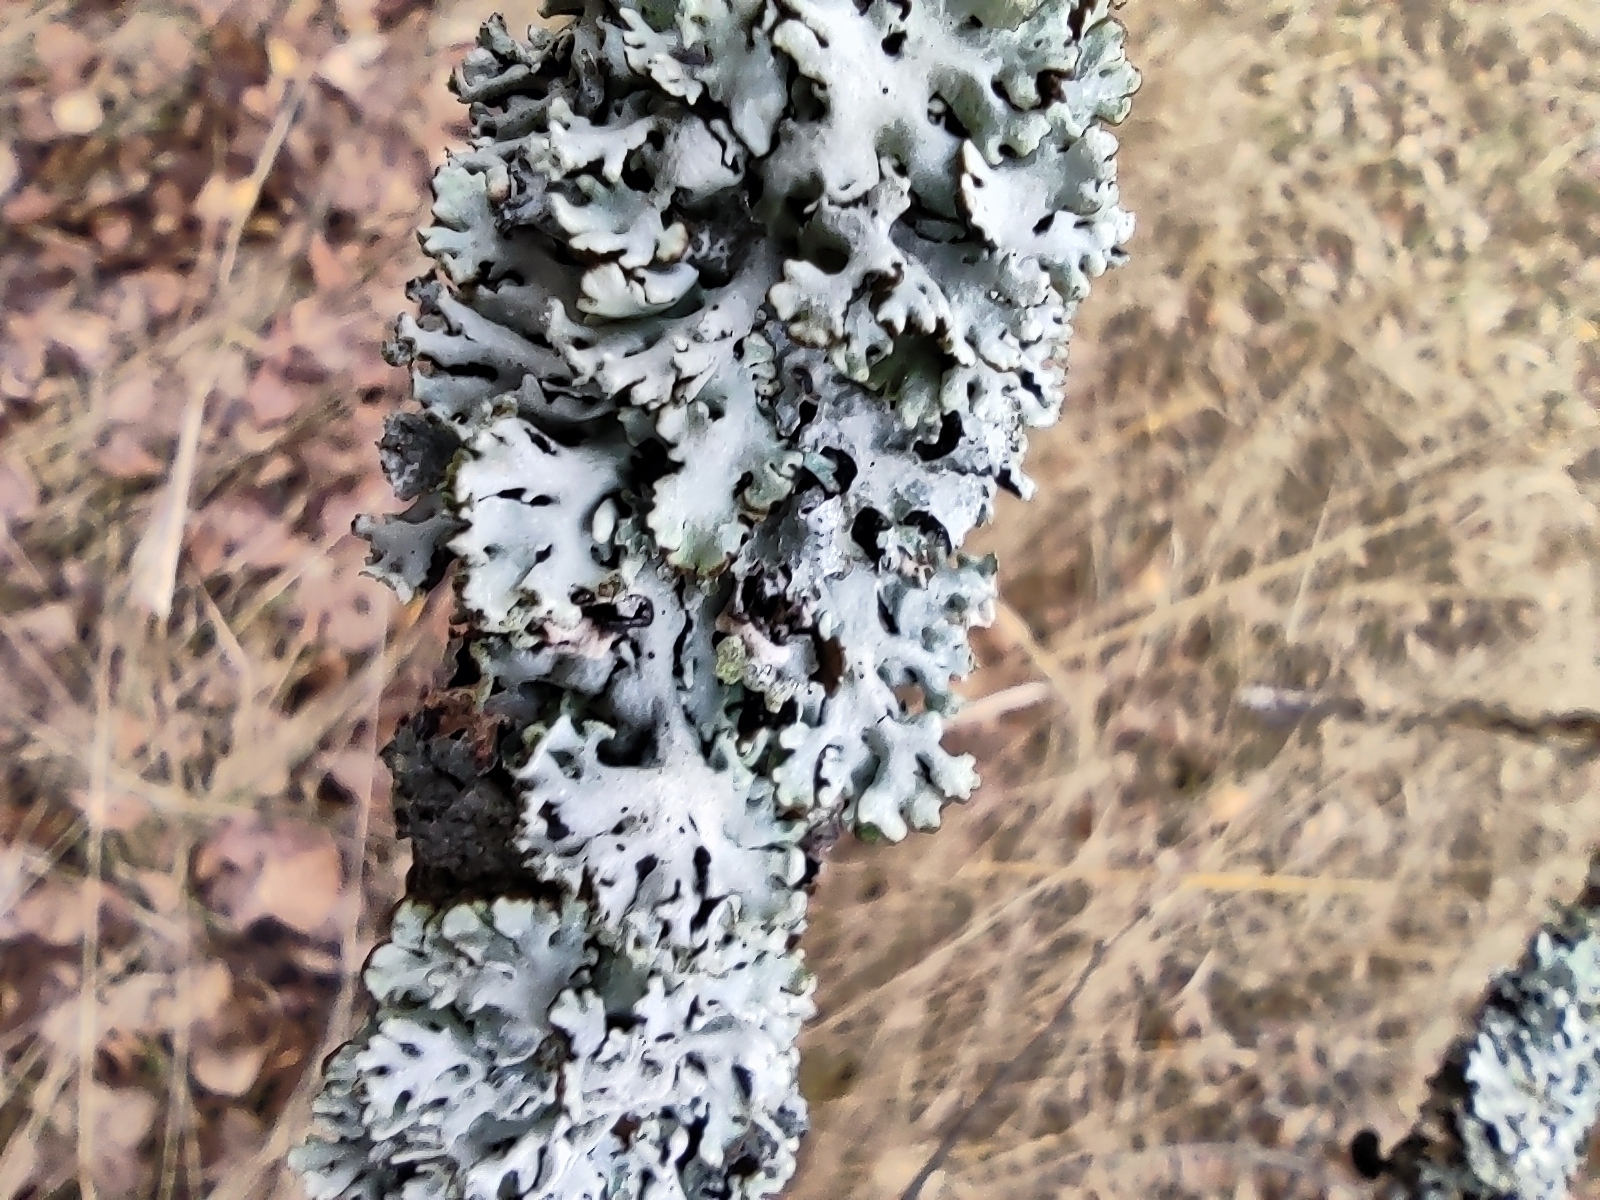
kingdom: Fungi
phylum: Ascomycota
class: Lecanoromycetes
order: Lecanorales
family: Parmeliaceae
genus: Hypogymnia
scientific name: Hypogymnia physodes
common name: Dark crottle
